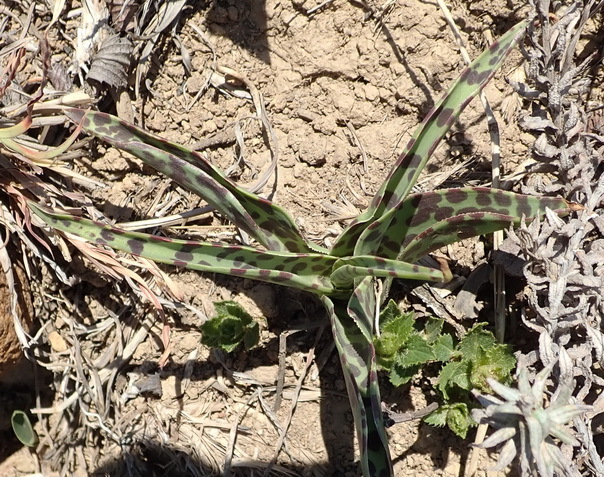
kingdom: Plantae
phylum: Tracheophyta
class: Liliopsida
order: Asparagales
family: Asparagaceae
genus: Ledebouria
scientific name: Ledebouria luteola
